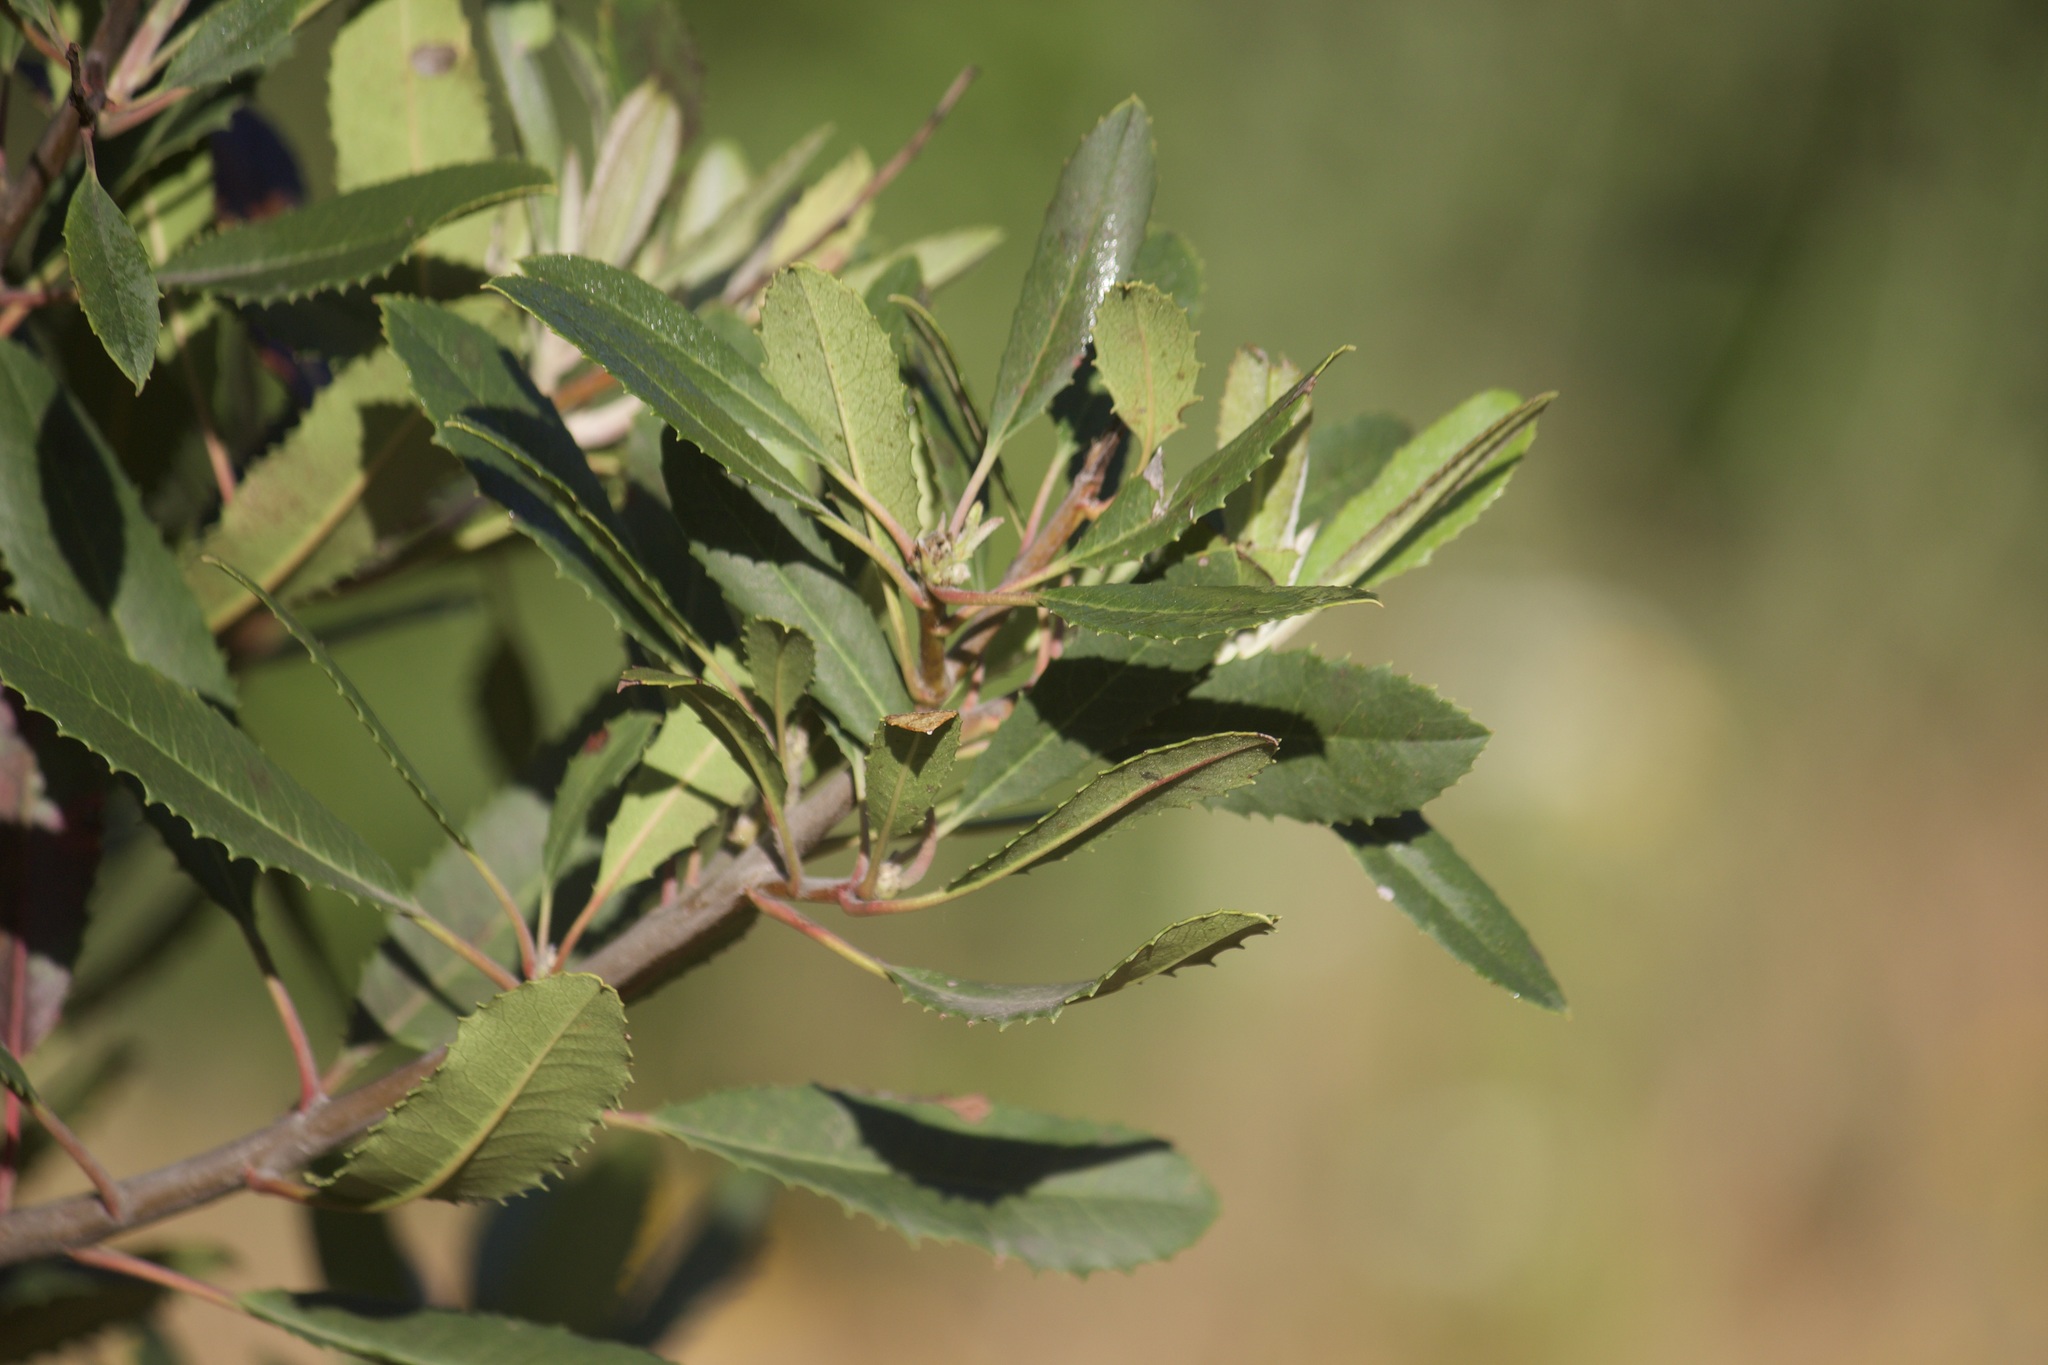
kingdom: Plantae
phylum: Tracheophyta
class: Magnoliopsida
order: Rosales
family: Rosaceae
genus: Heteromeles
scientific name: Heteromeles arbutifolia
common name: California-holly
